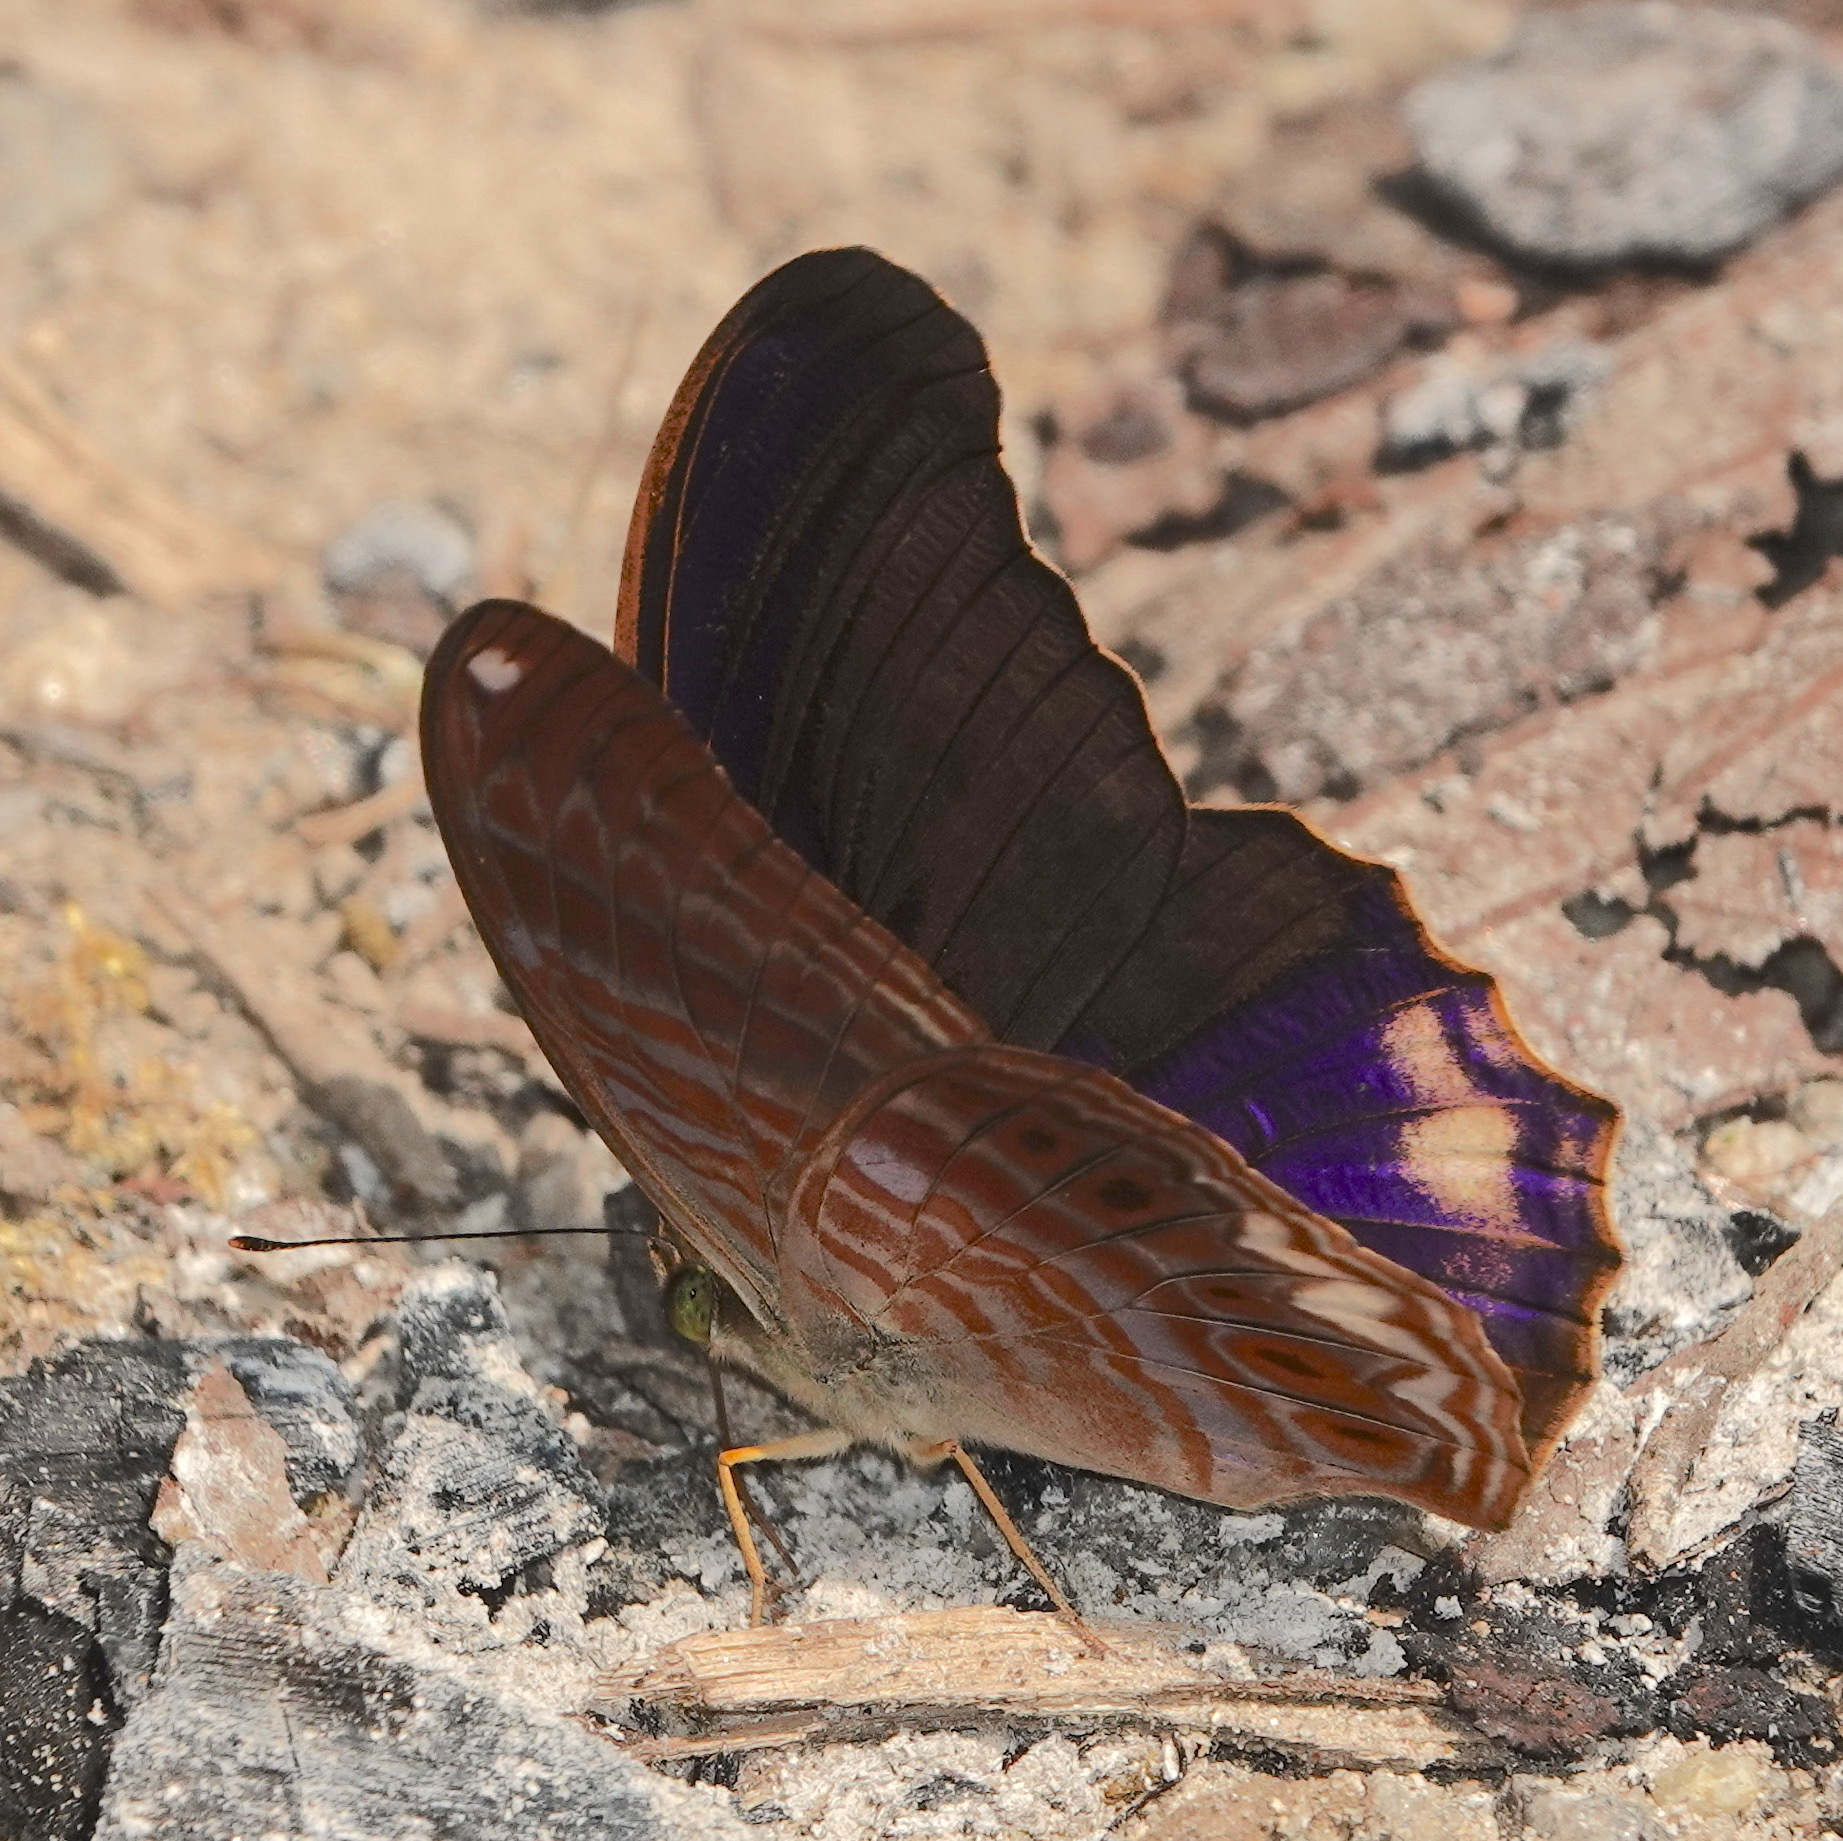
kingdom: Animalia
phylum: Arthropoda
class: Insecta
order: Lepidoptera
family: Nymphalidae
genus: Terinos
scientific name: Terinos terpander
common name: Royal assyrian
